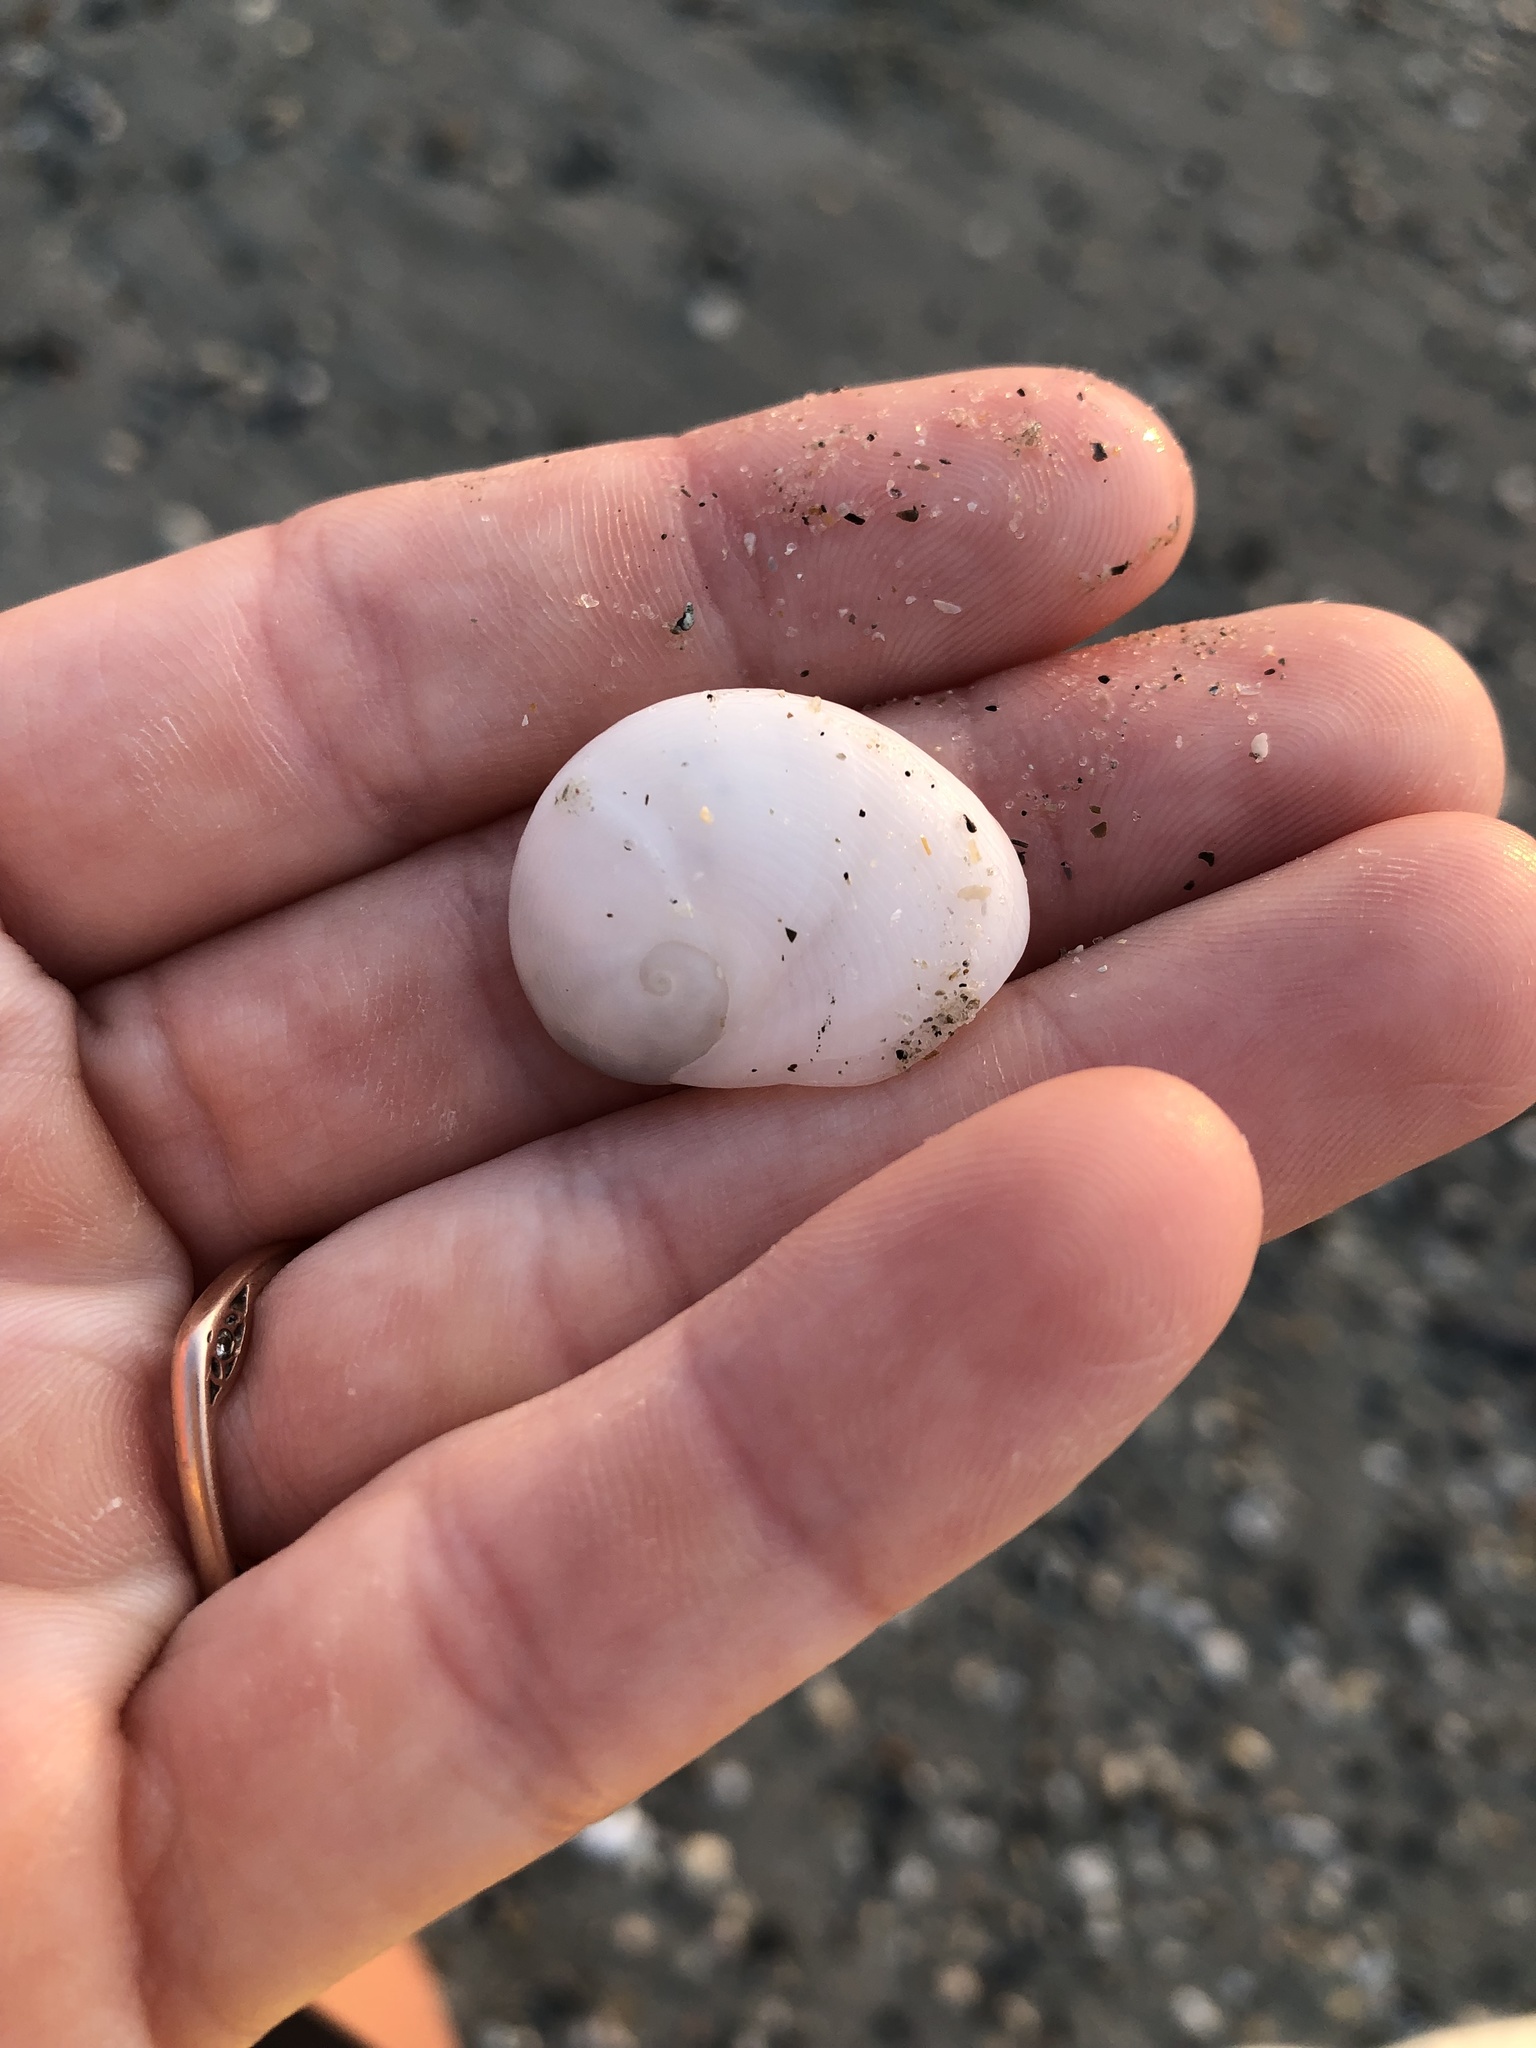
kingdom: Animalia
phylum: Mollusca
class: Gastropoda
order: Littorinimorpha
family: Naticidae
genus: Sinum
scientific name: Sinum perspectivum
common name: White baby ear
